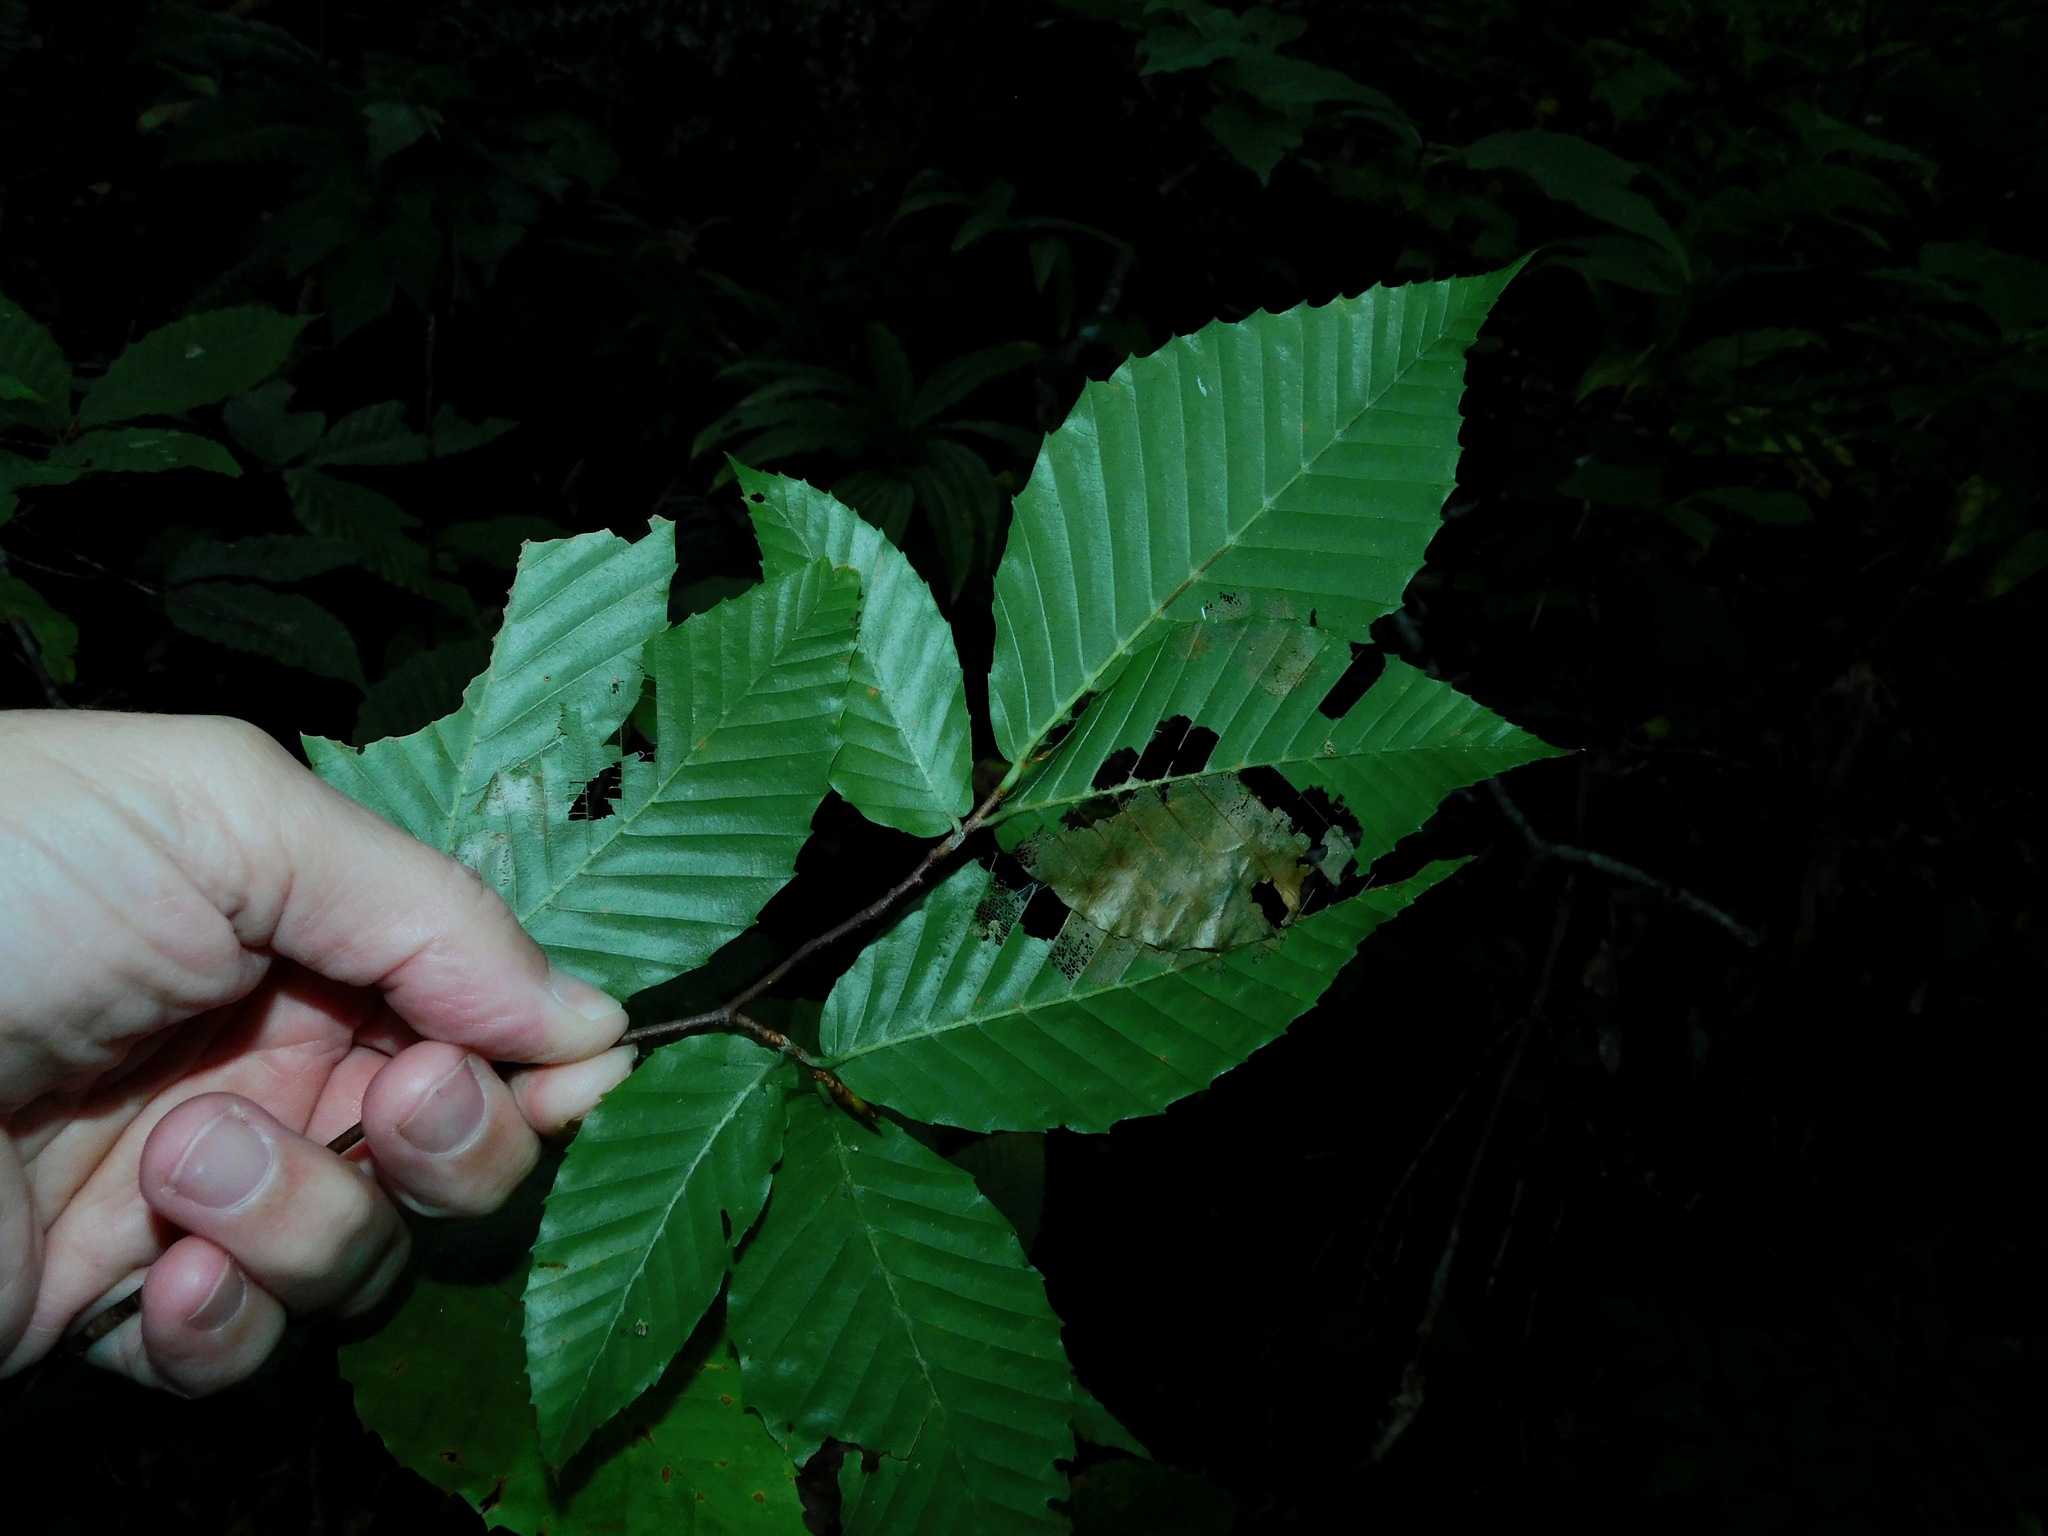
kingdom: Plantae
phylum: Tracheophyta
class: Magnoliopsida
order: Fagales
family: Fagaceae
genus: Fagus
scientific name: Fagus grandifolia
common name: American beech
